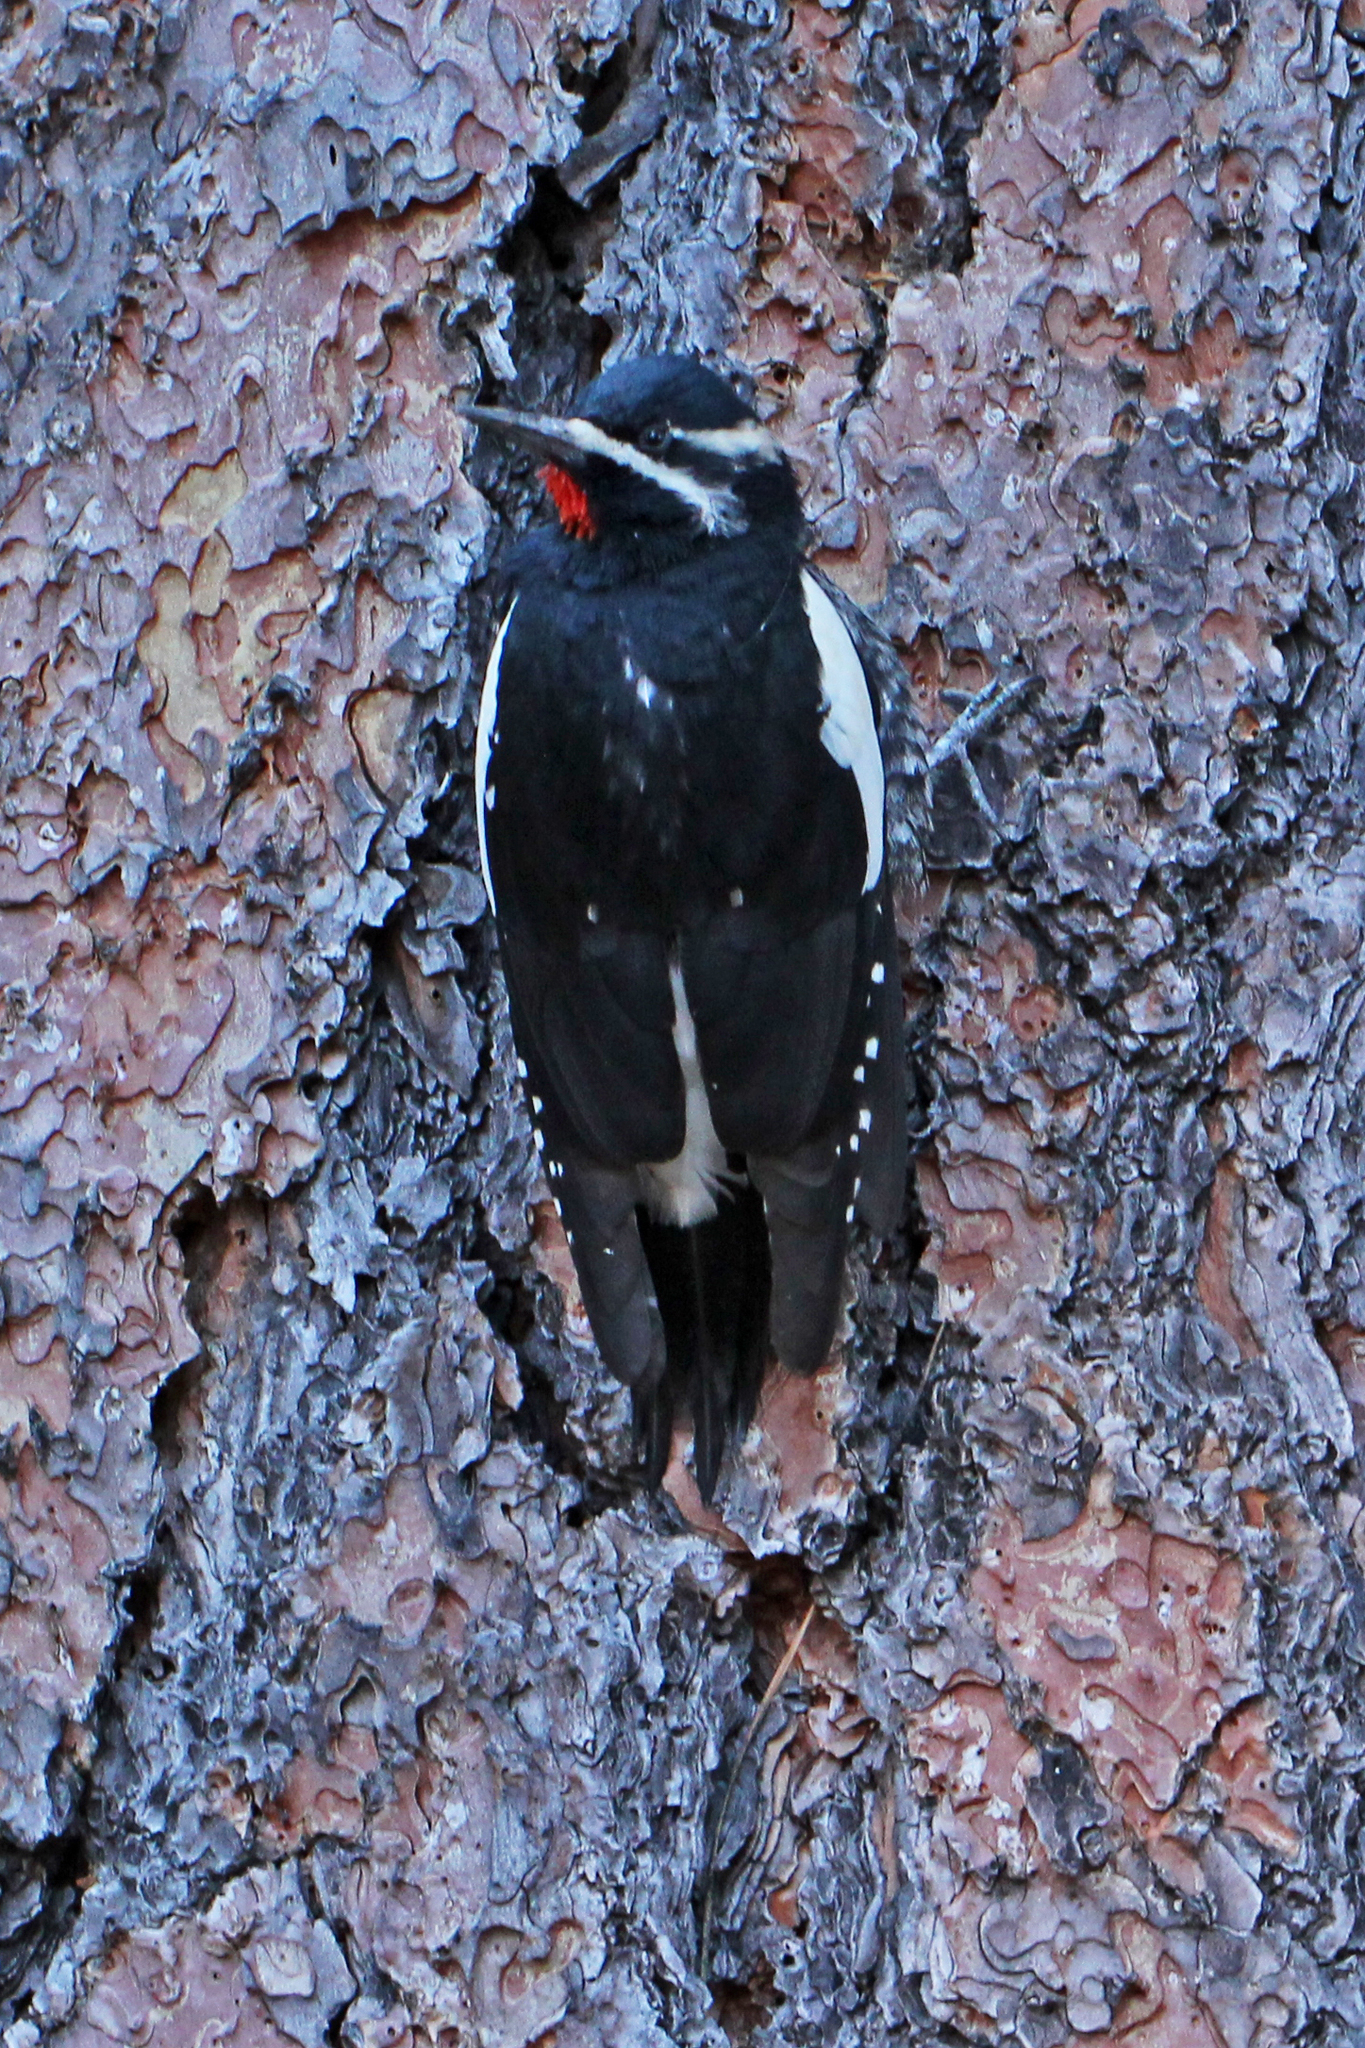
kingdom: Animalia
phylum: Chordata
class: Aves
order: Piciformes
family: Picidae
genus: Sphyrapicus
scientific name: Sphyrapicus thyroideus
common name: Williamson's sapsucker
